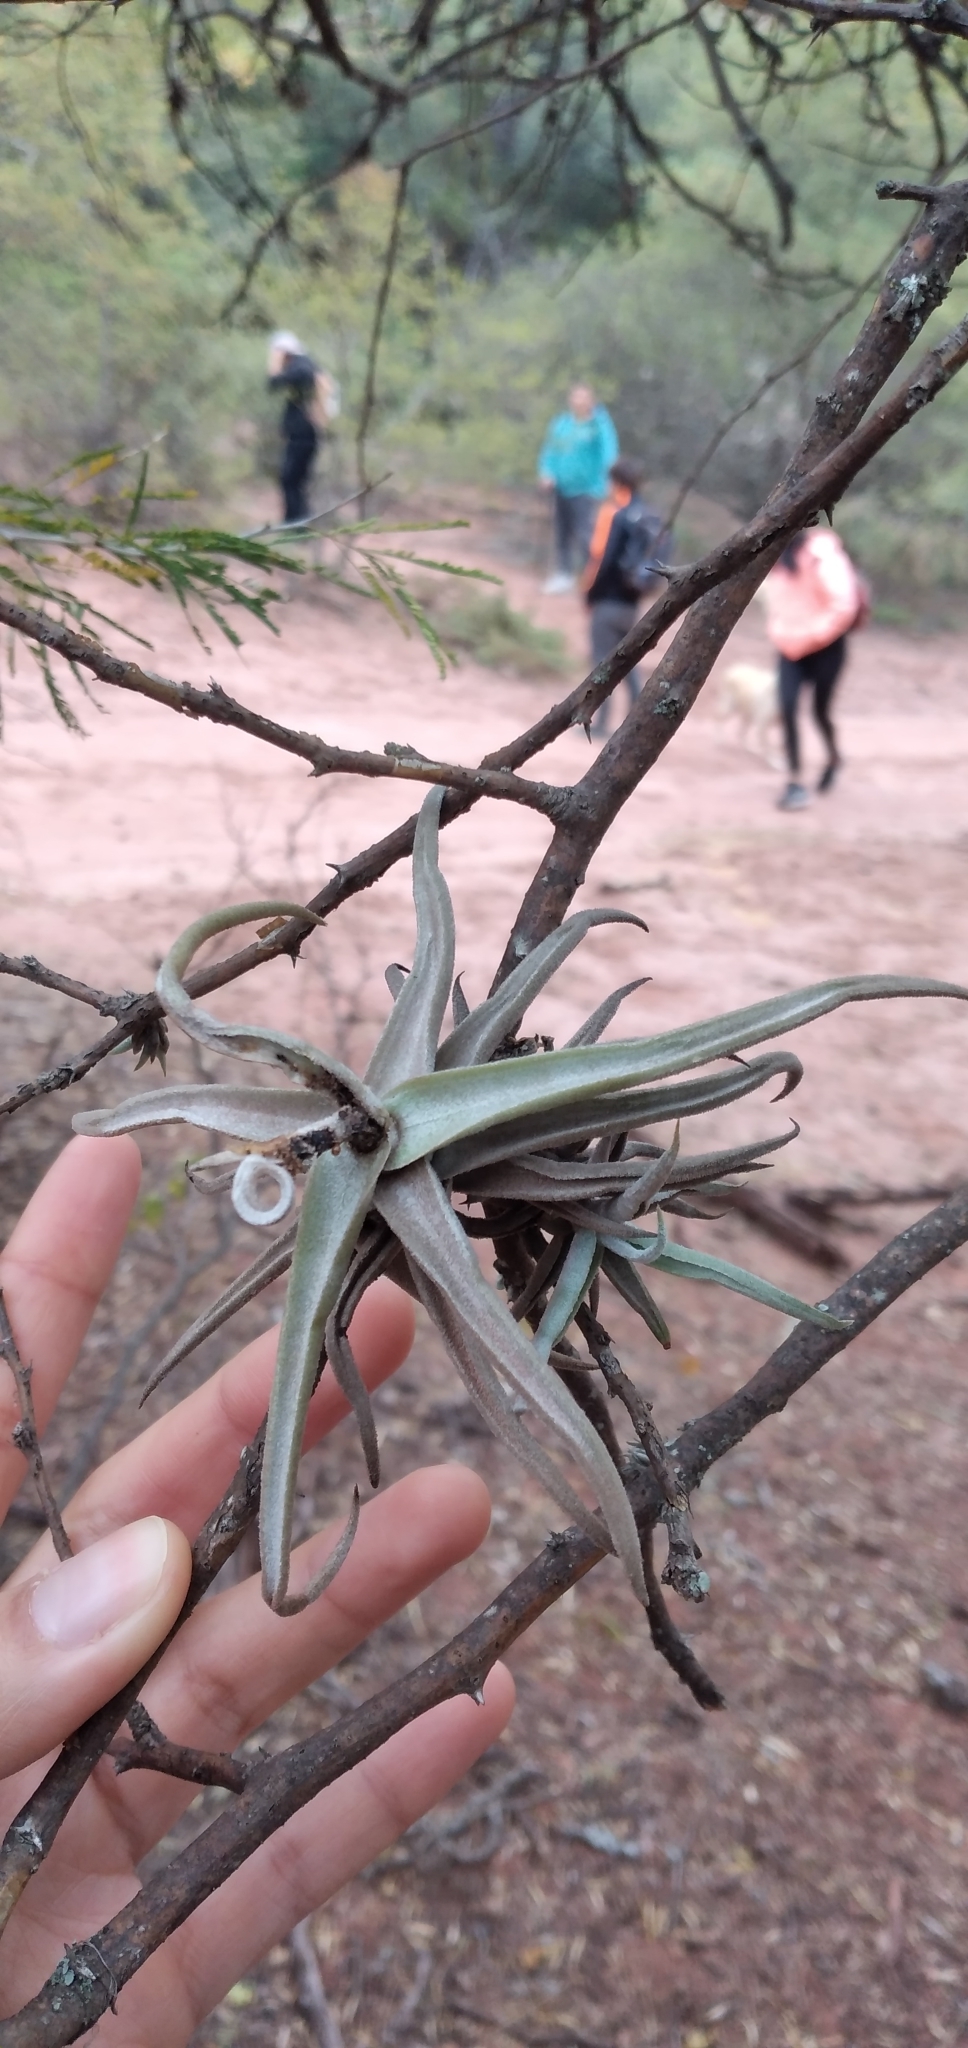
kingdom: Plantae
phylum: Tracheophyta
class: Liliopsida
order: Poales
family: Bromeliaceae
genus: Tillandsia
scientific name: Tillandsia duratii
